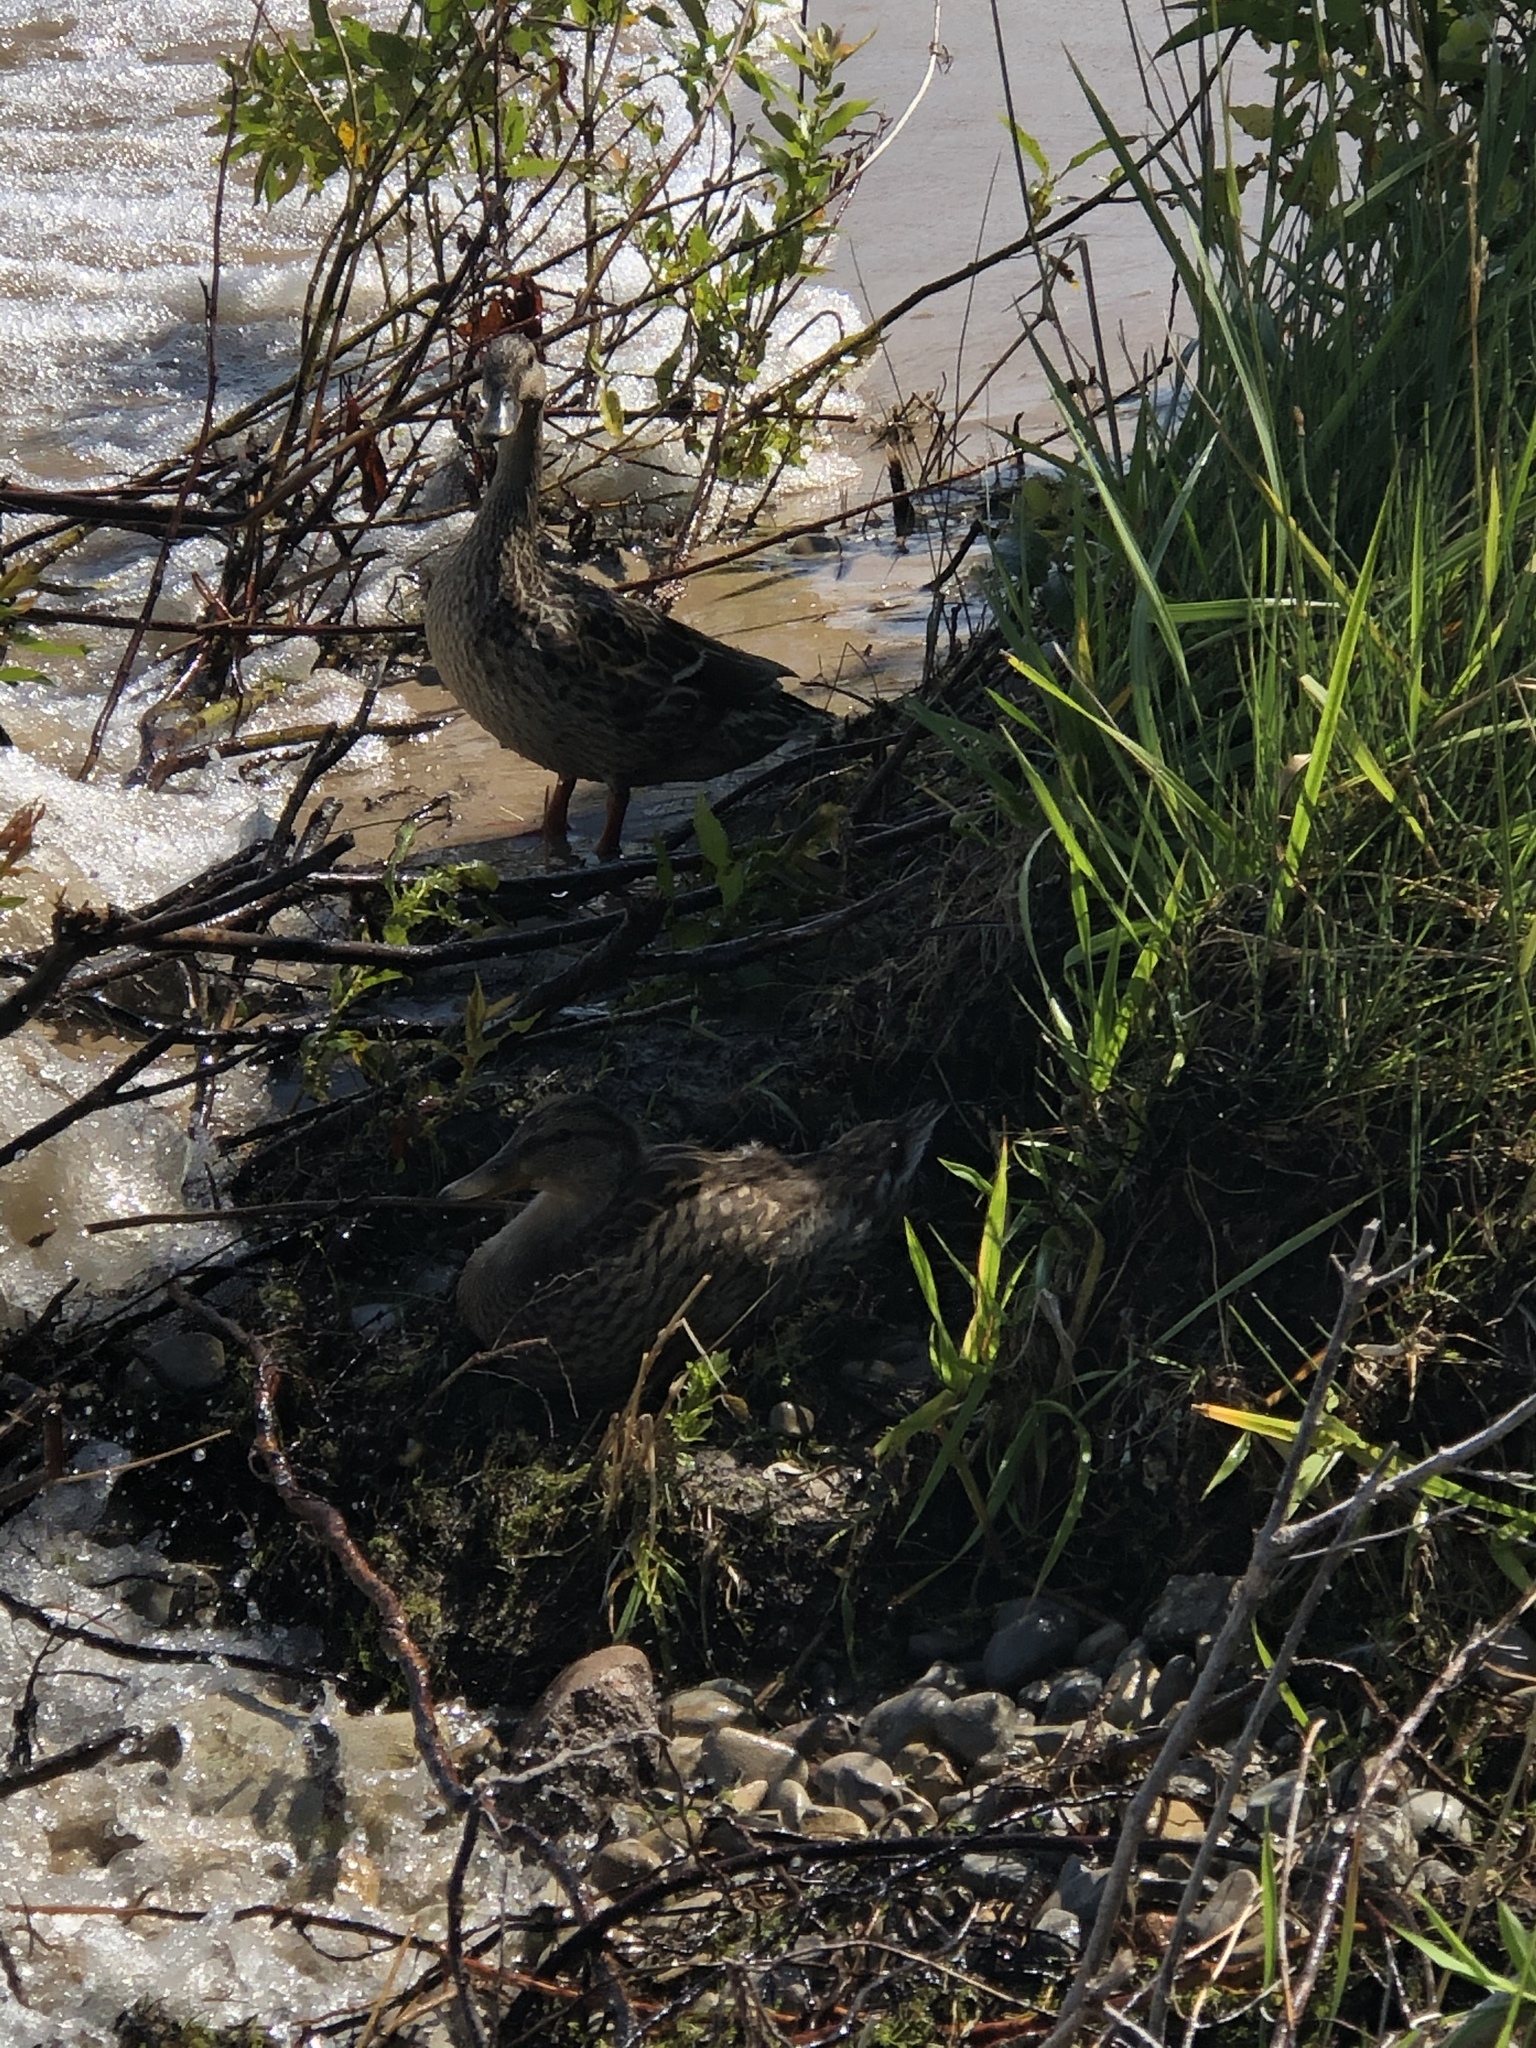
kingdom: Animalia
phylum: Chordata
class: Aves
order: Anseriformes
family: Anatidae
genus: Anas
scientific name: Anas platyrhynchos
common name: Mallard
